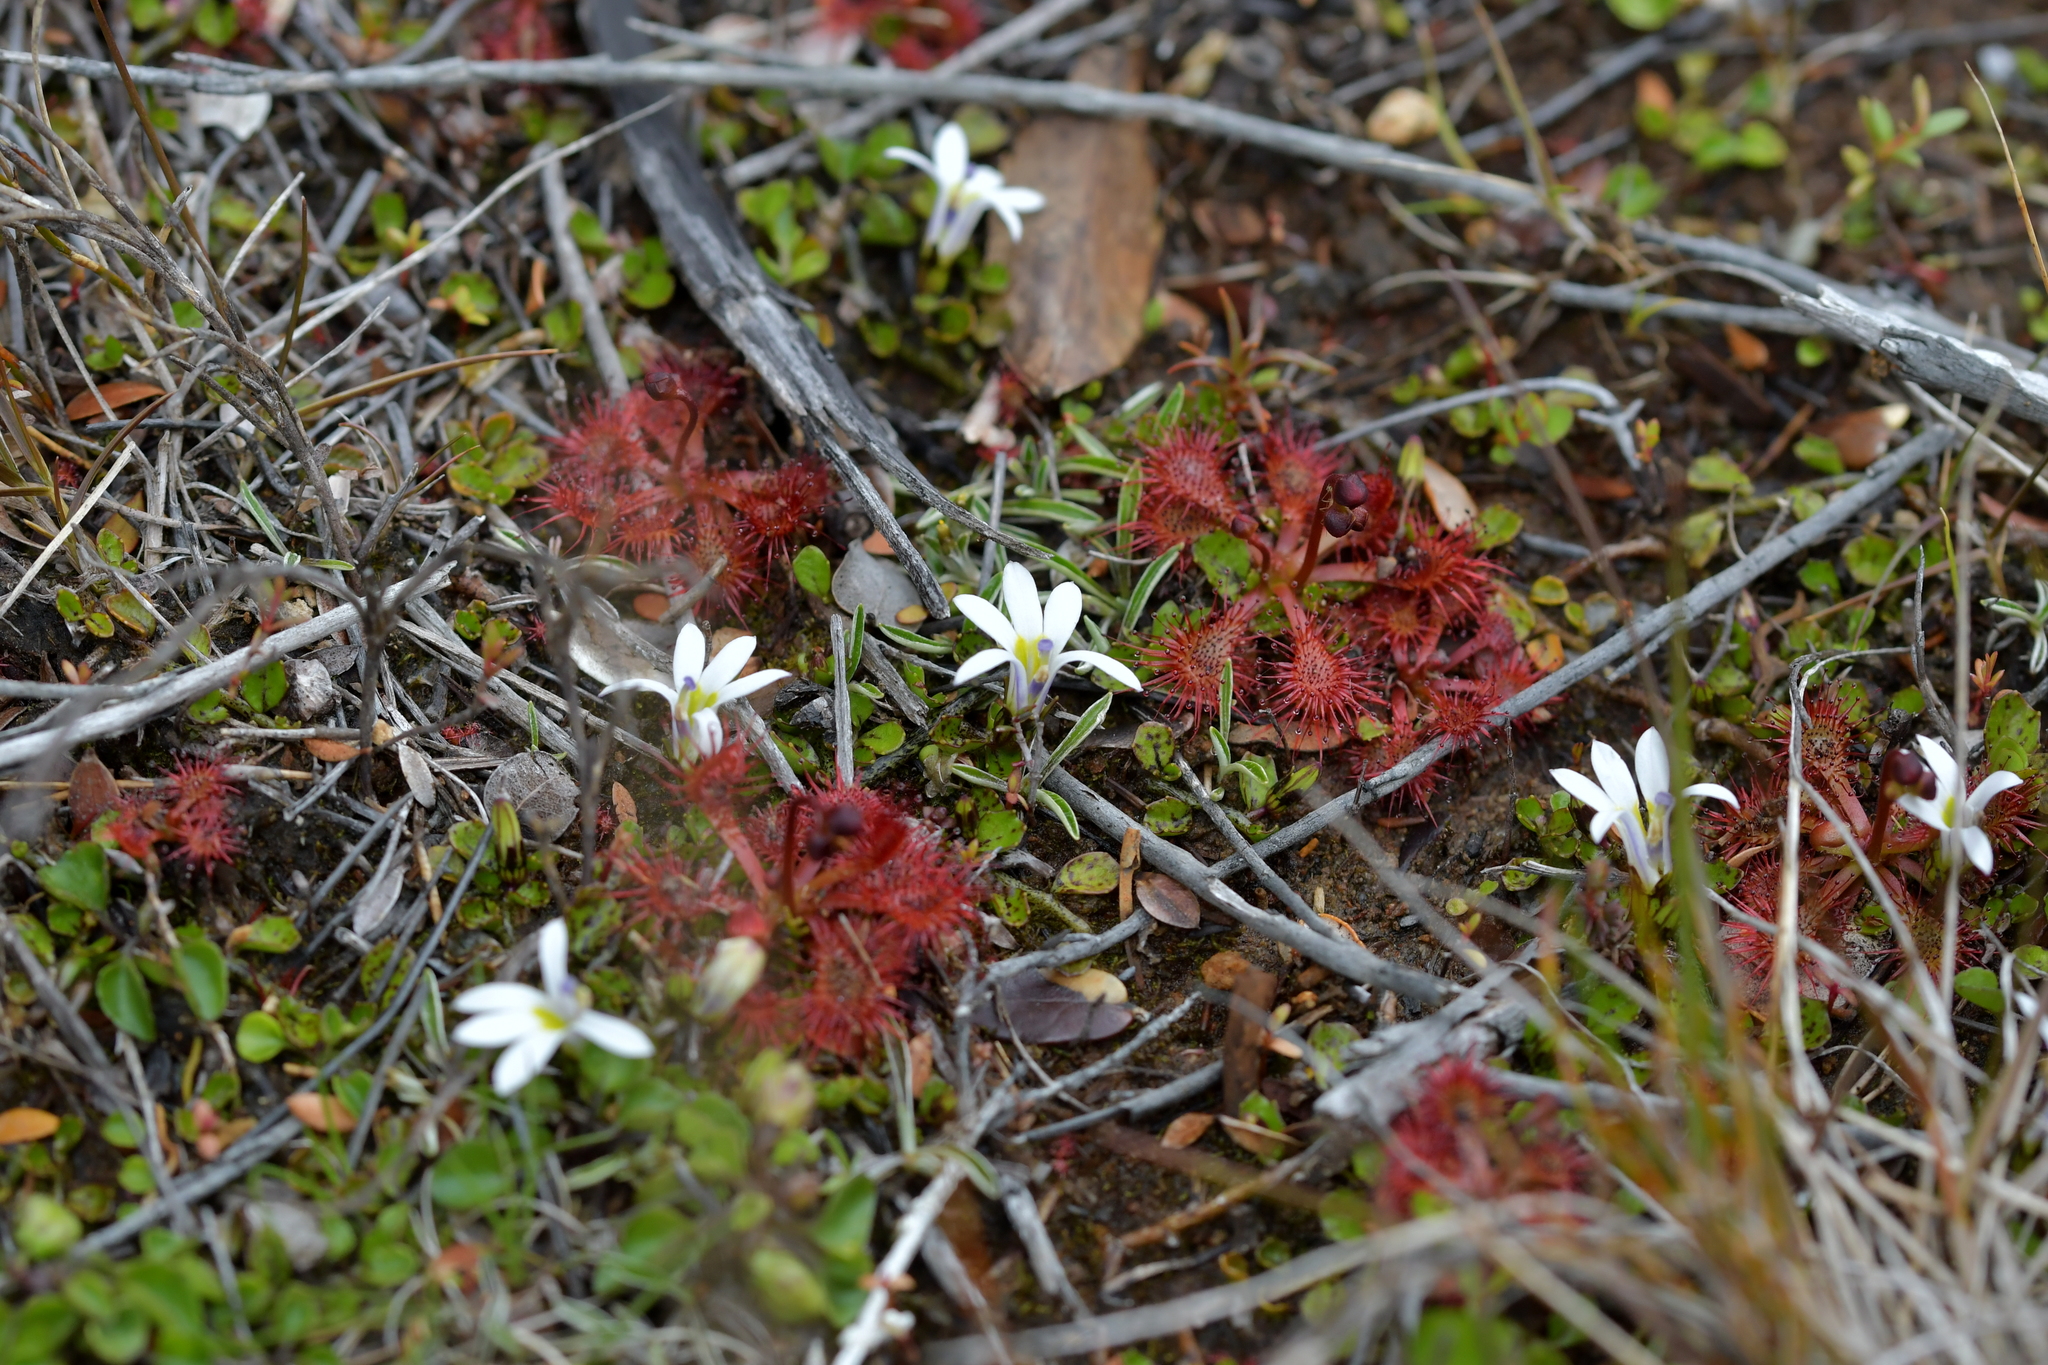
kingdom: Plantae
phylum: Tracheophyta
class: Magnoliopsida
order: Asterales
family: Campanulaceae
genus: Lobelia
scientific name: Lobelia angulata
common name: Lawn lobelia
